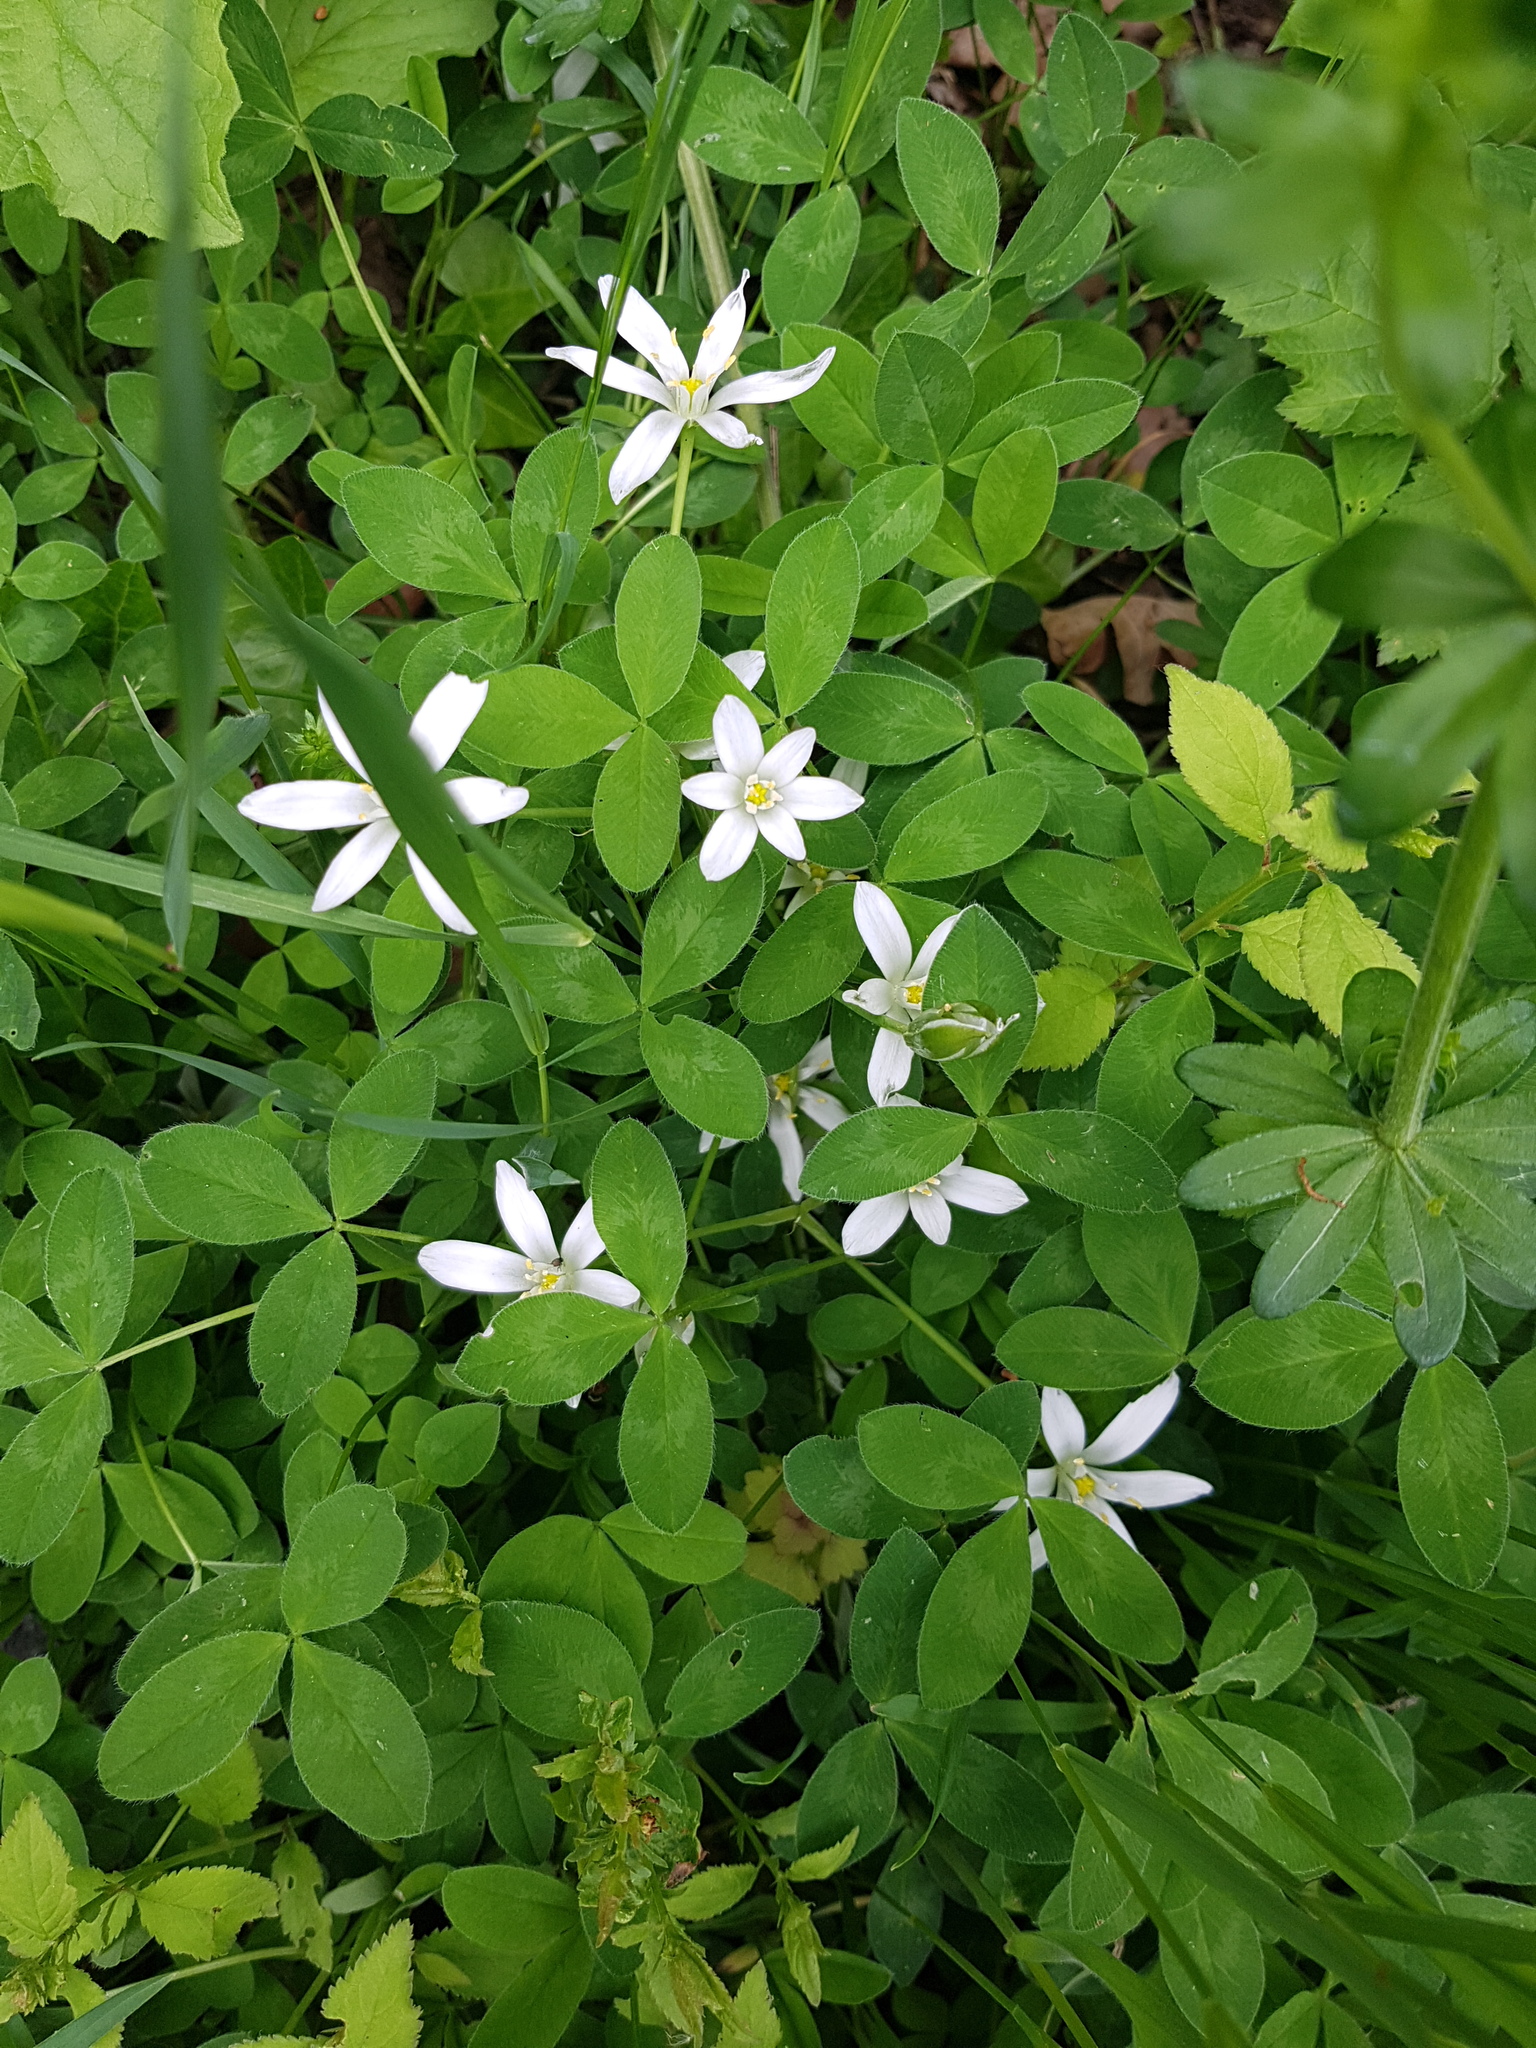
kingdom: Plantae
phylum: Tracheophyta
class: Liliopsida
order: Asparagales
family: Asparagaceae
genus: Ornithogalum
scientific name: Ornithogalum umbellatum
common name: Garden star-of-bethlehem
